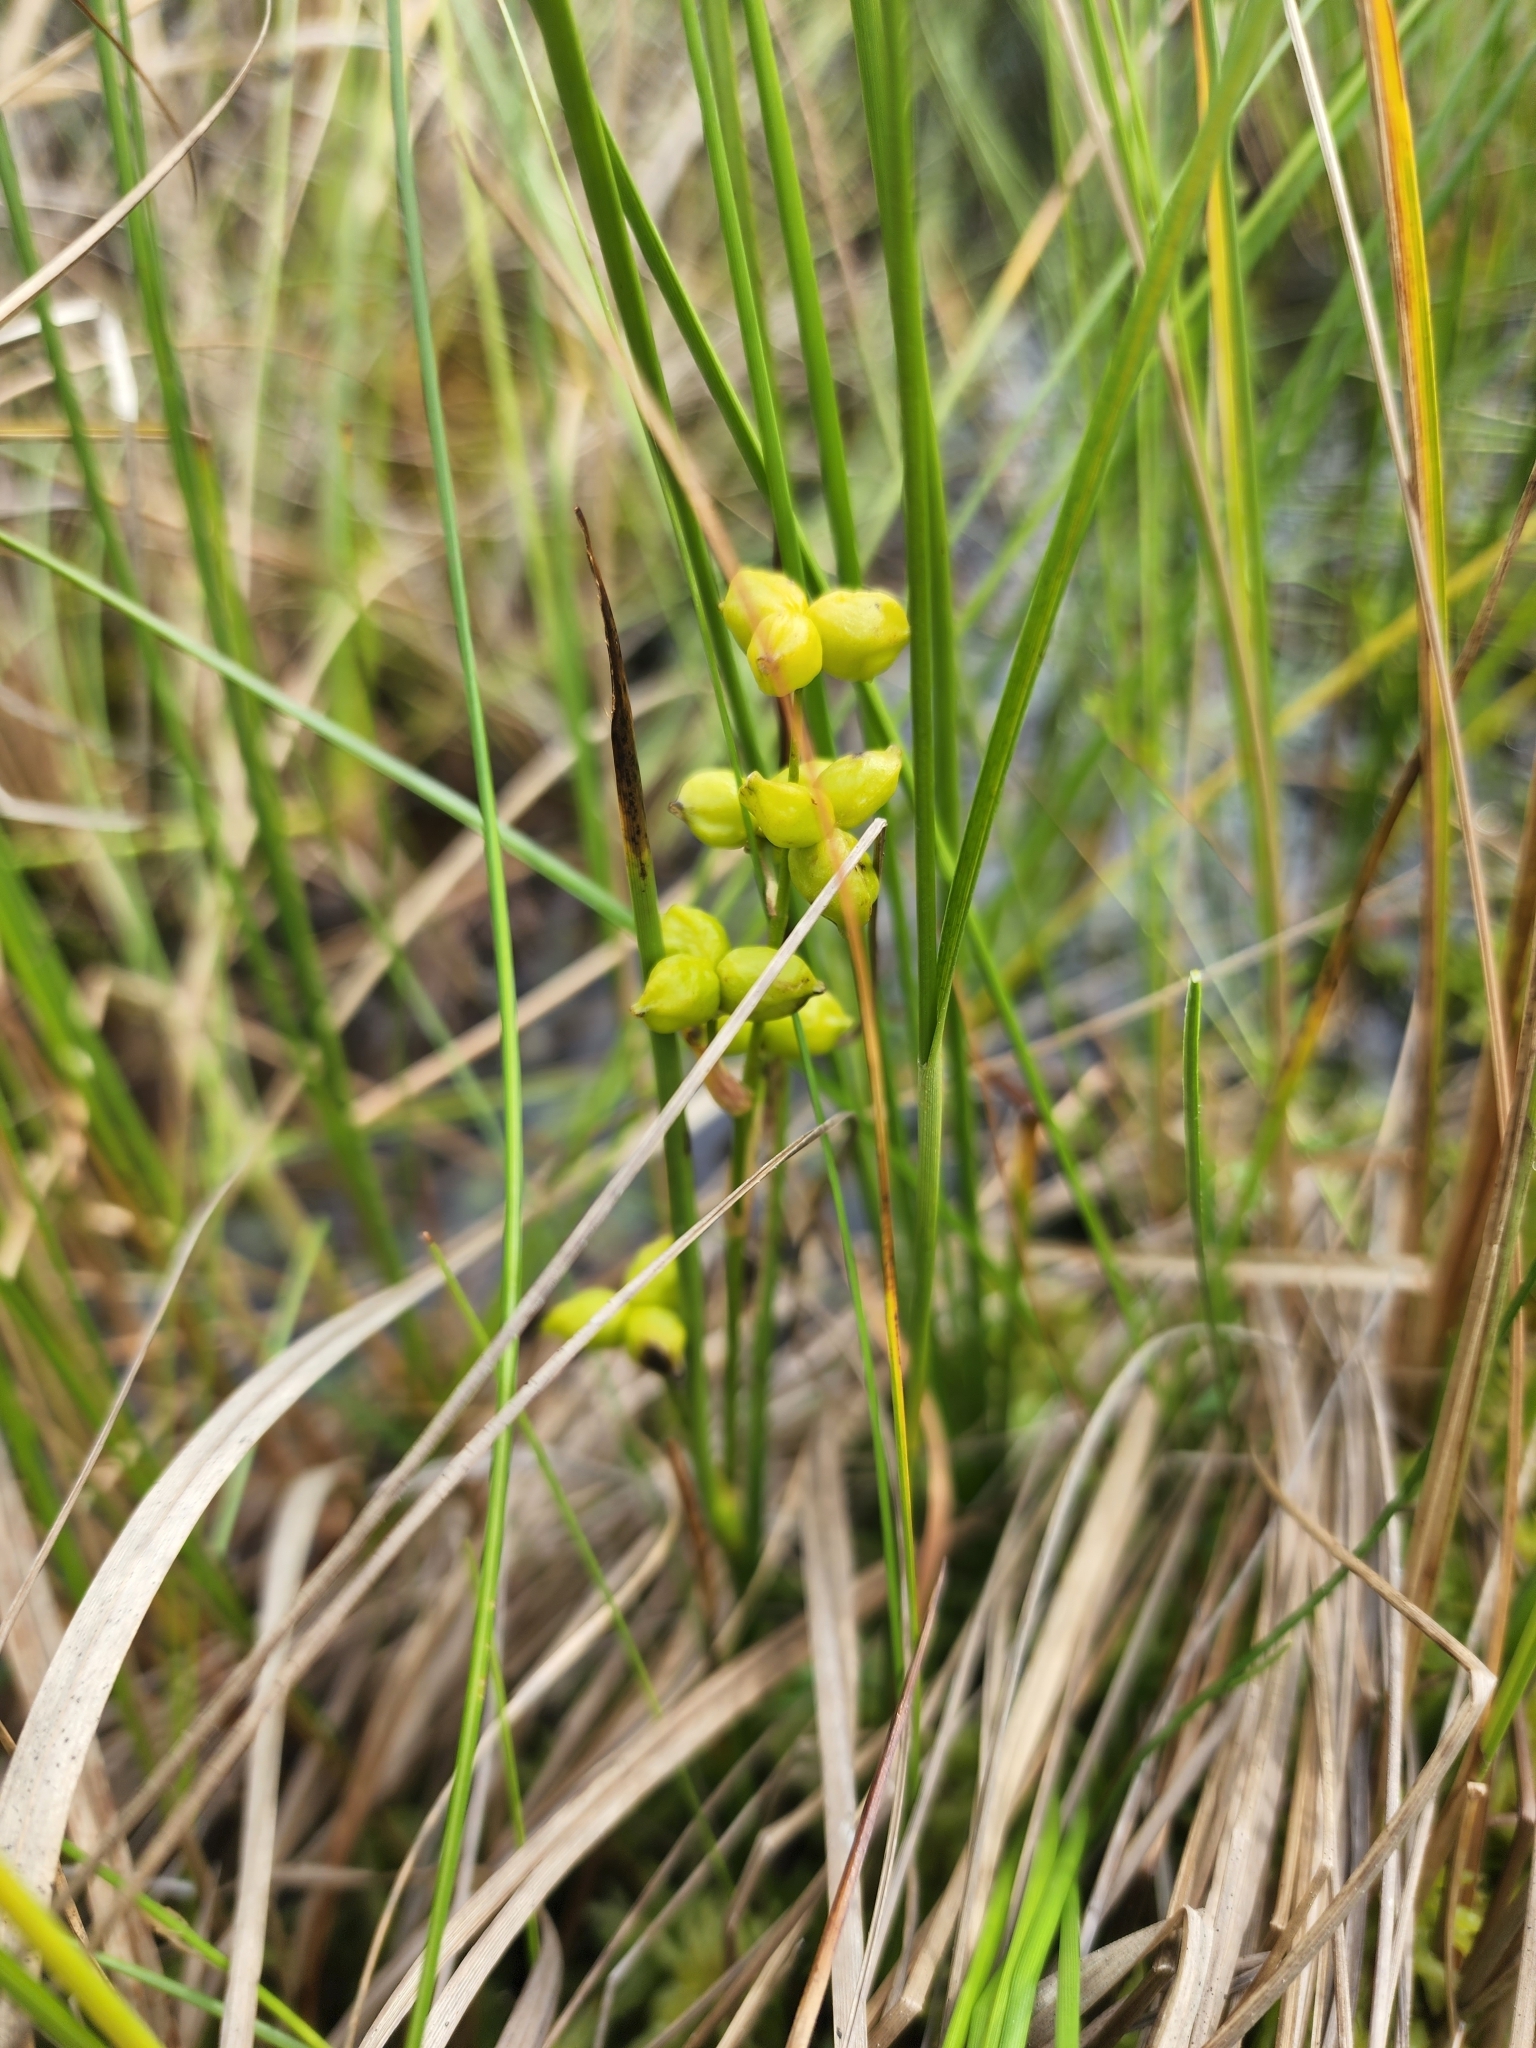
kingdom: Plantae
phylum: Tracheophyta
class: Liliopsida
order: Alismatales
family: Scheuchzeriaceae
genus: Scheuchzeria
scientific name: Scheuchzeria palustris
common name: Rannoch-rush
